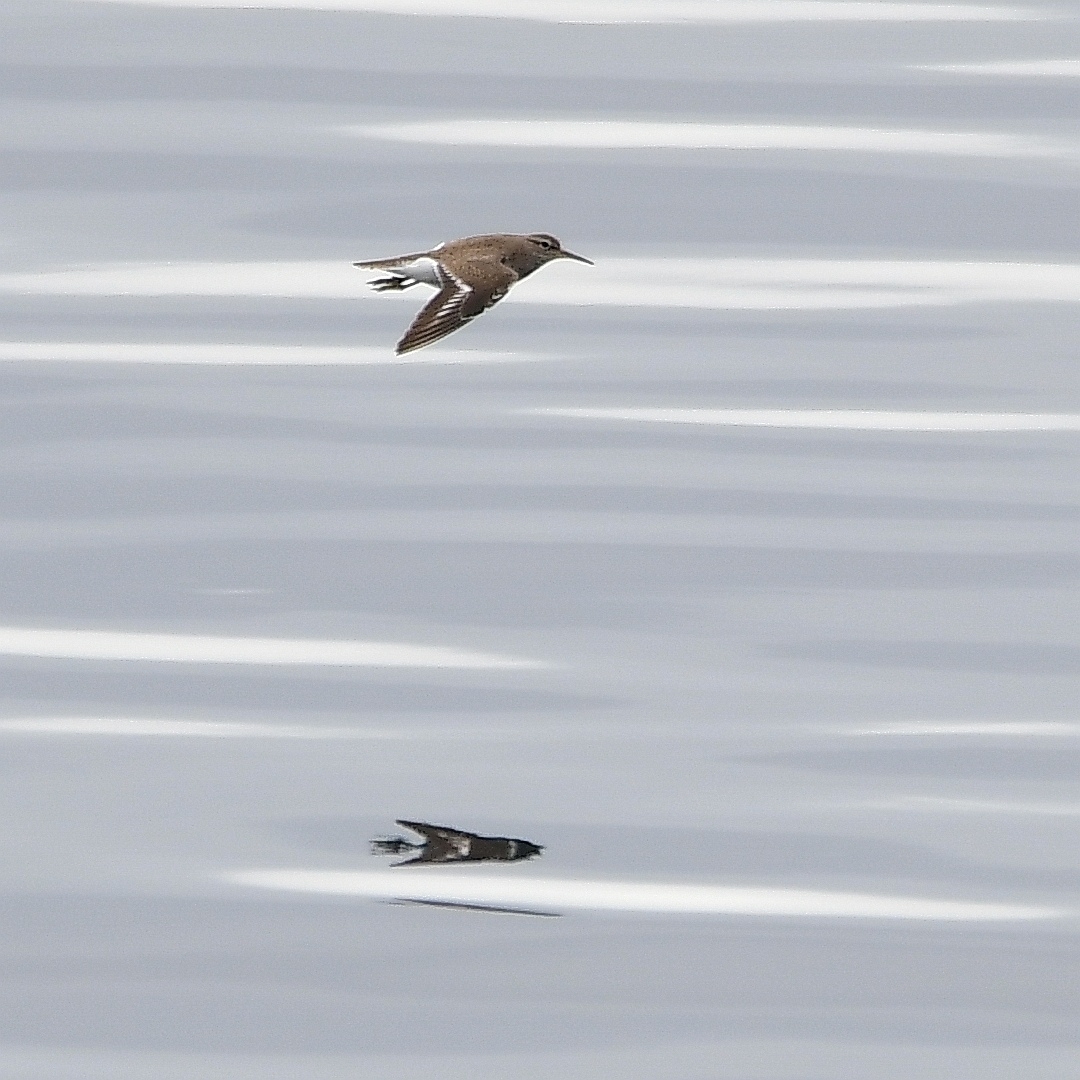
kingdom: Animalia
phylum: Chordata
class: Aves
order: Charadriiformes
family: Scolopacidae
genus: Actitis
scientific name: Actitis hypoleucos
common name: Common sandpiper
